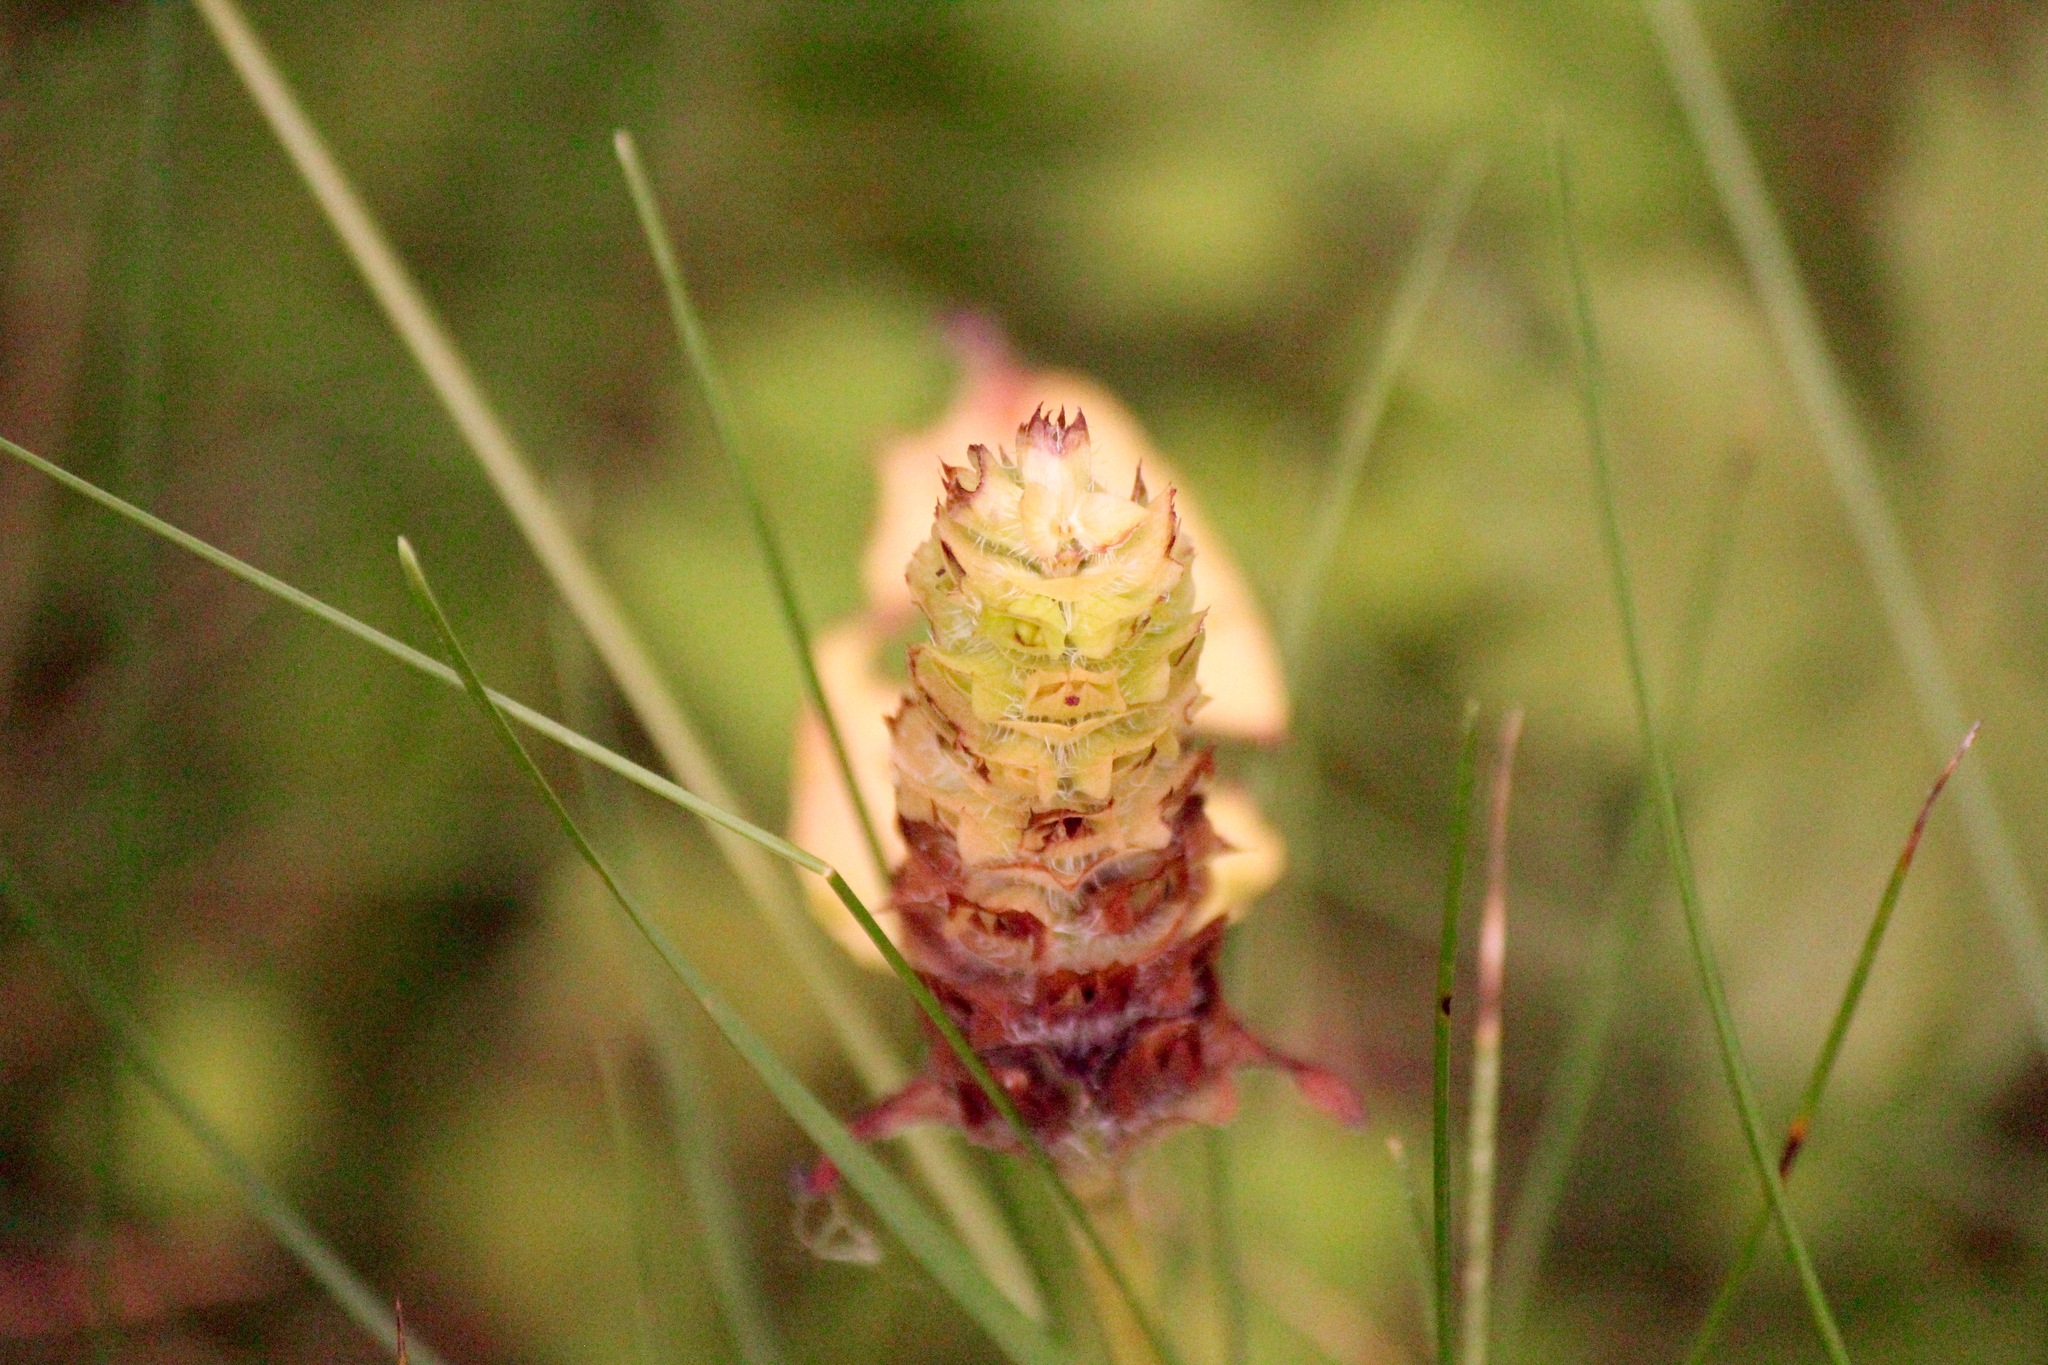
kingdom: Plantae
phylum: Tracheophyta
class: Magnoliopsida
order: Lamiales
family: Lamiaceae
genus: Prunella
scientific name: Prunella vulgaris
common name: Heal-all
